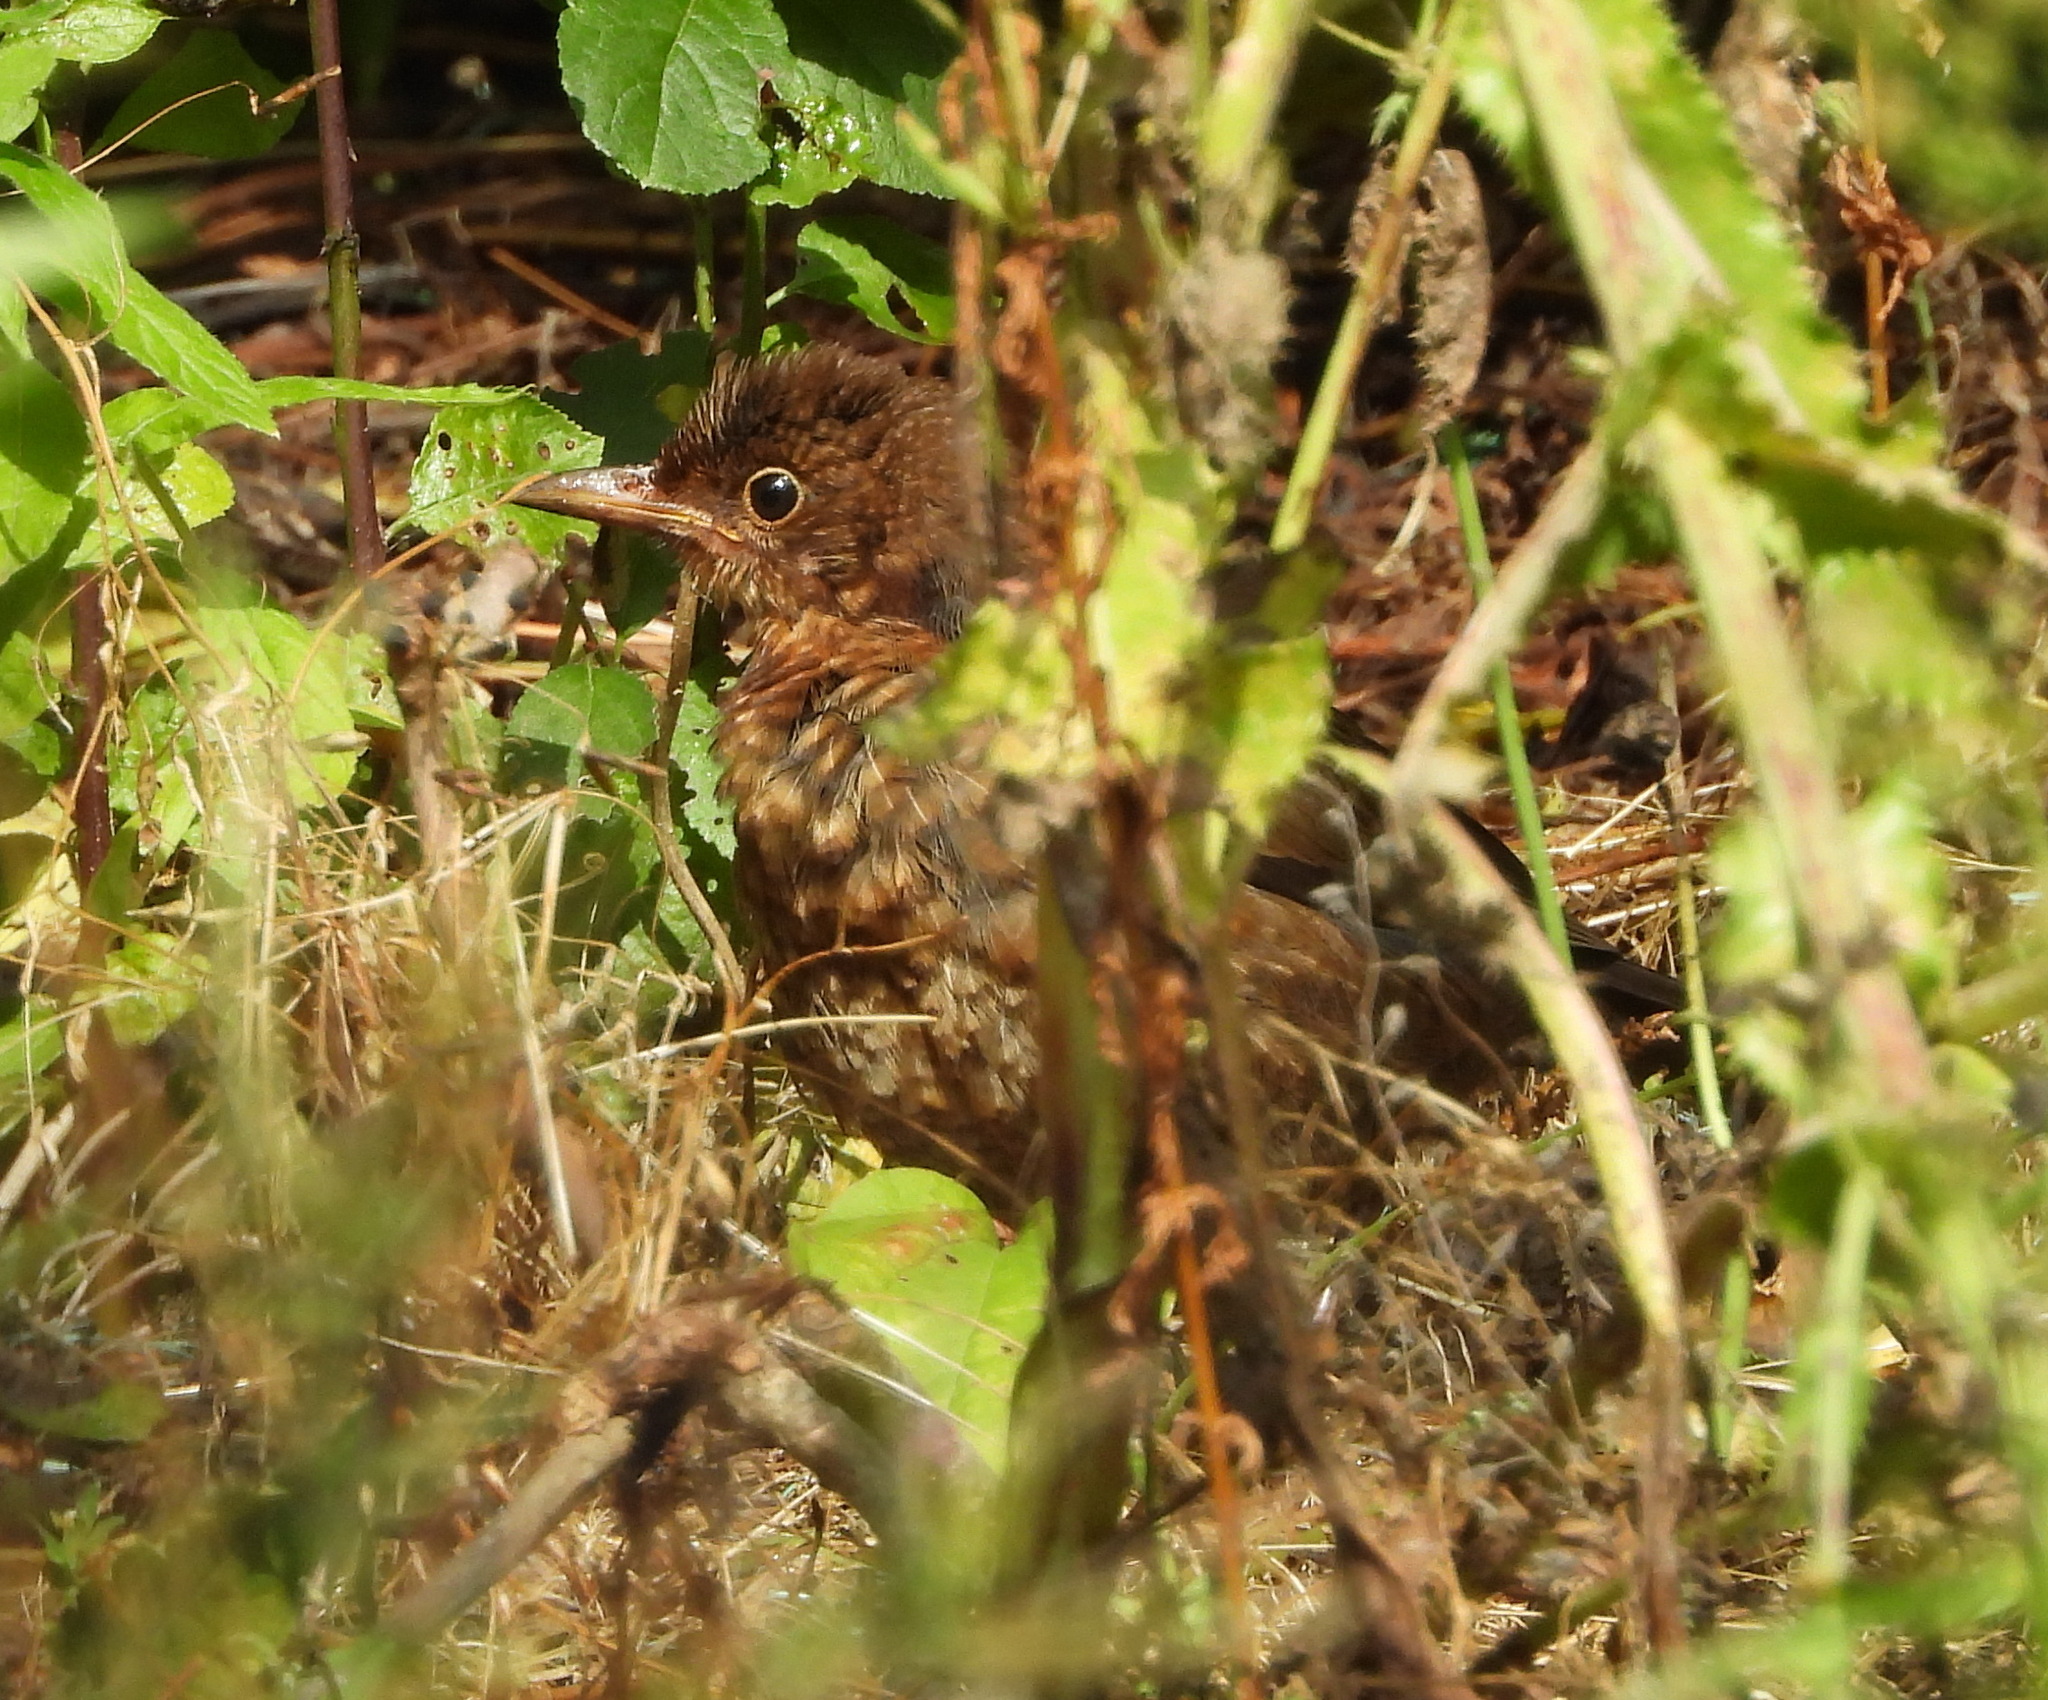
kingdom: Animalia
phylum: Chordata
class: Aves
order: Passeriformes
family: Turdidae
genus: Turdus
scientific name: Turdus merula
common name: Common blackbird
